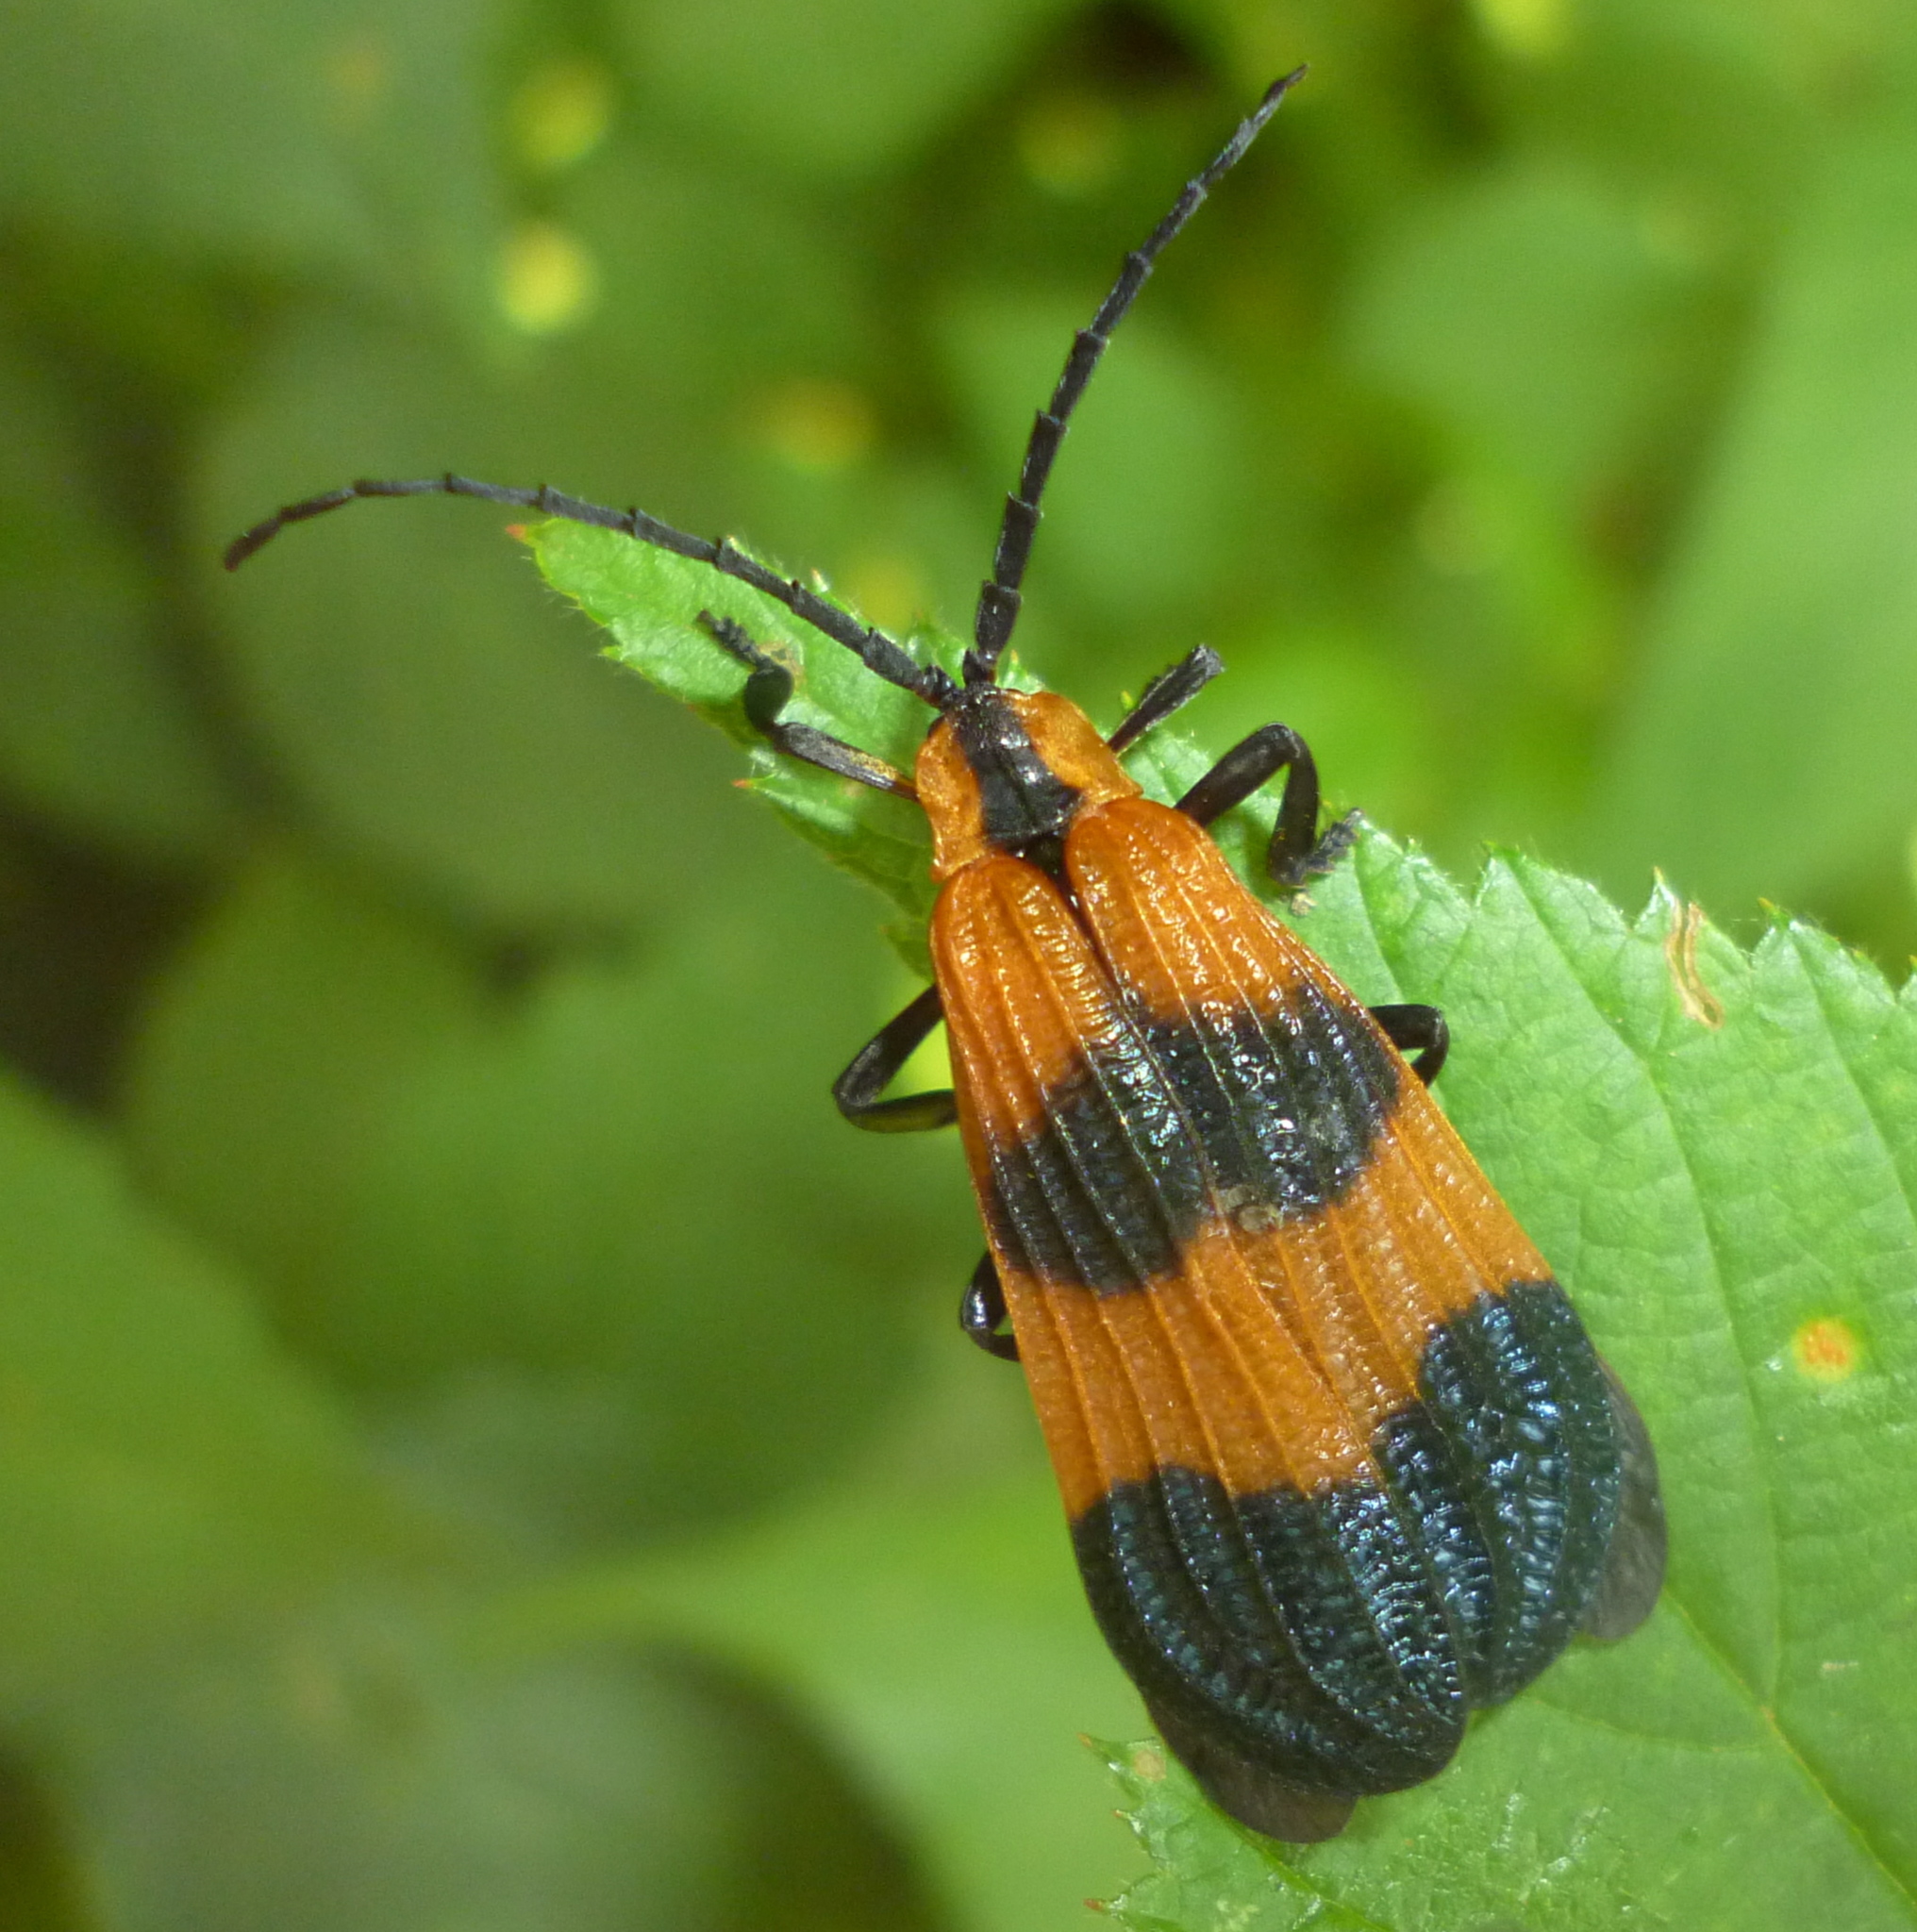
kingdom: Animalia
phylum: Arthropoda
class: Insecta
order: Coleoptera
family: Lycidae
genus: Calopteron
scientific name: Calopteron terminale
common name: End band net-winged beetle
